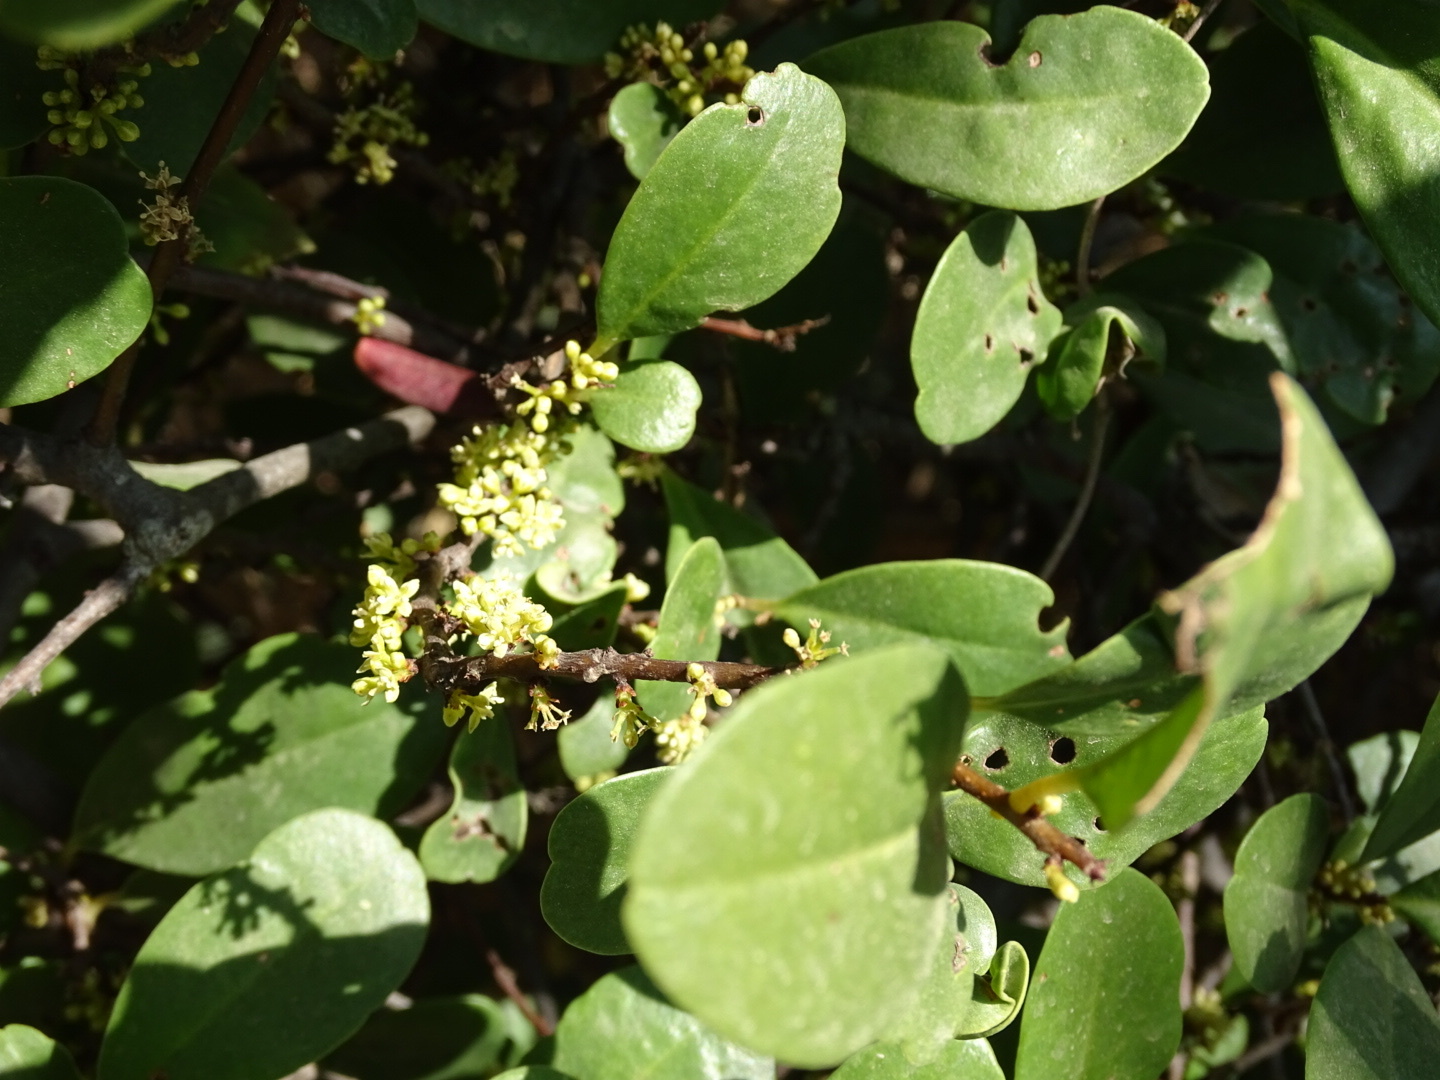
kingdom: Plantae
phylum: Tracheophyta
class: Magnoliopsida
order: Ericales
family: Primulaceae
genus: Embelia
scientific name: Embelia laeta
